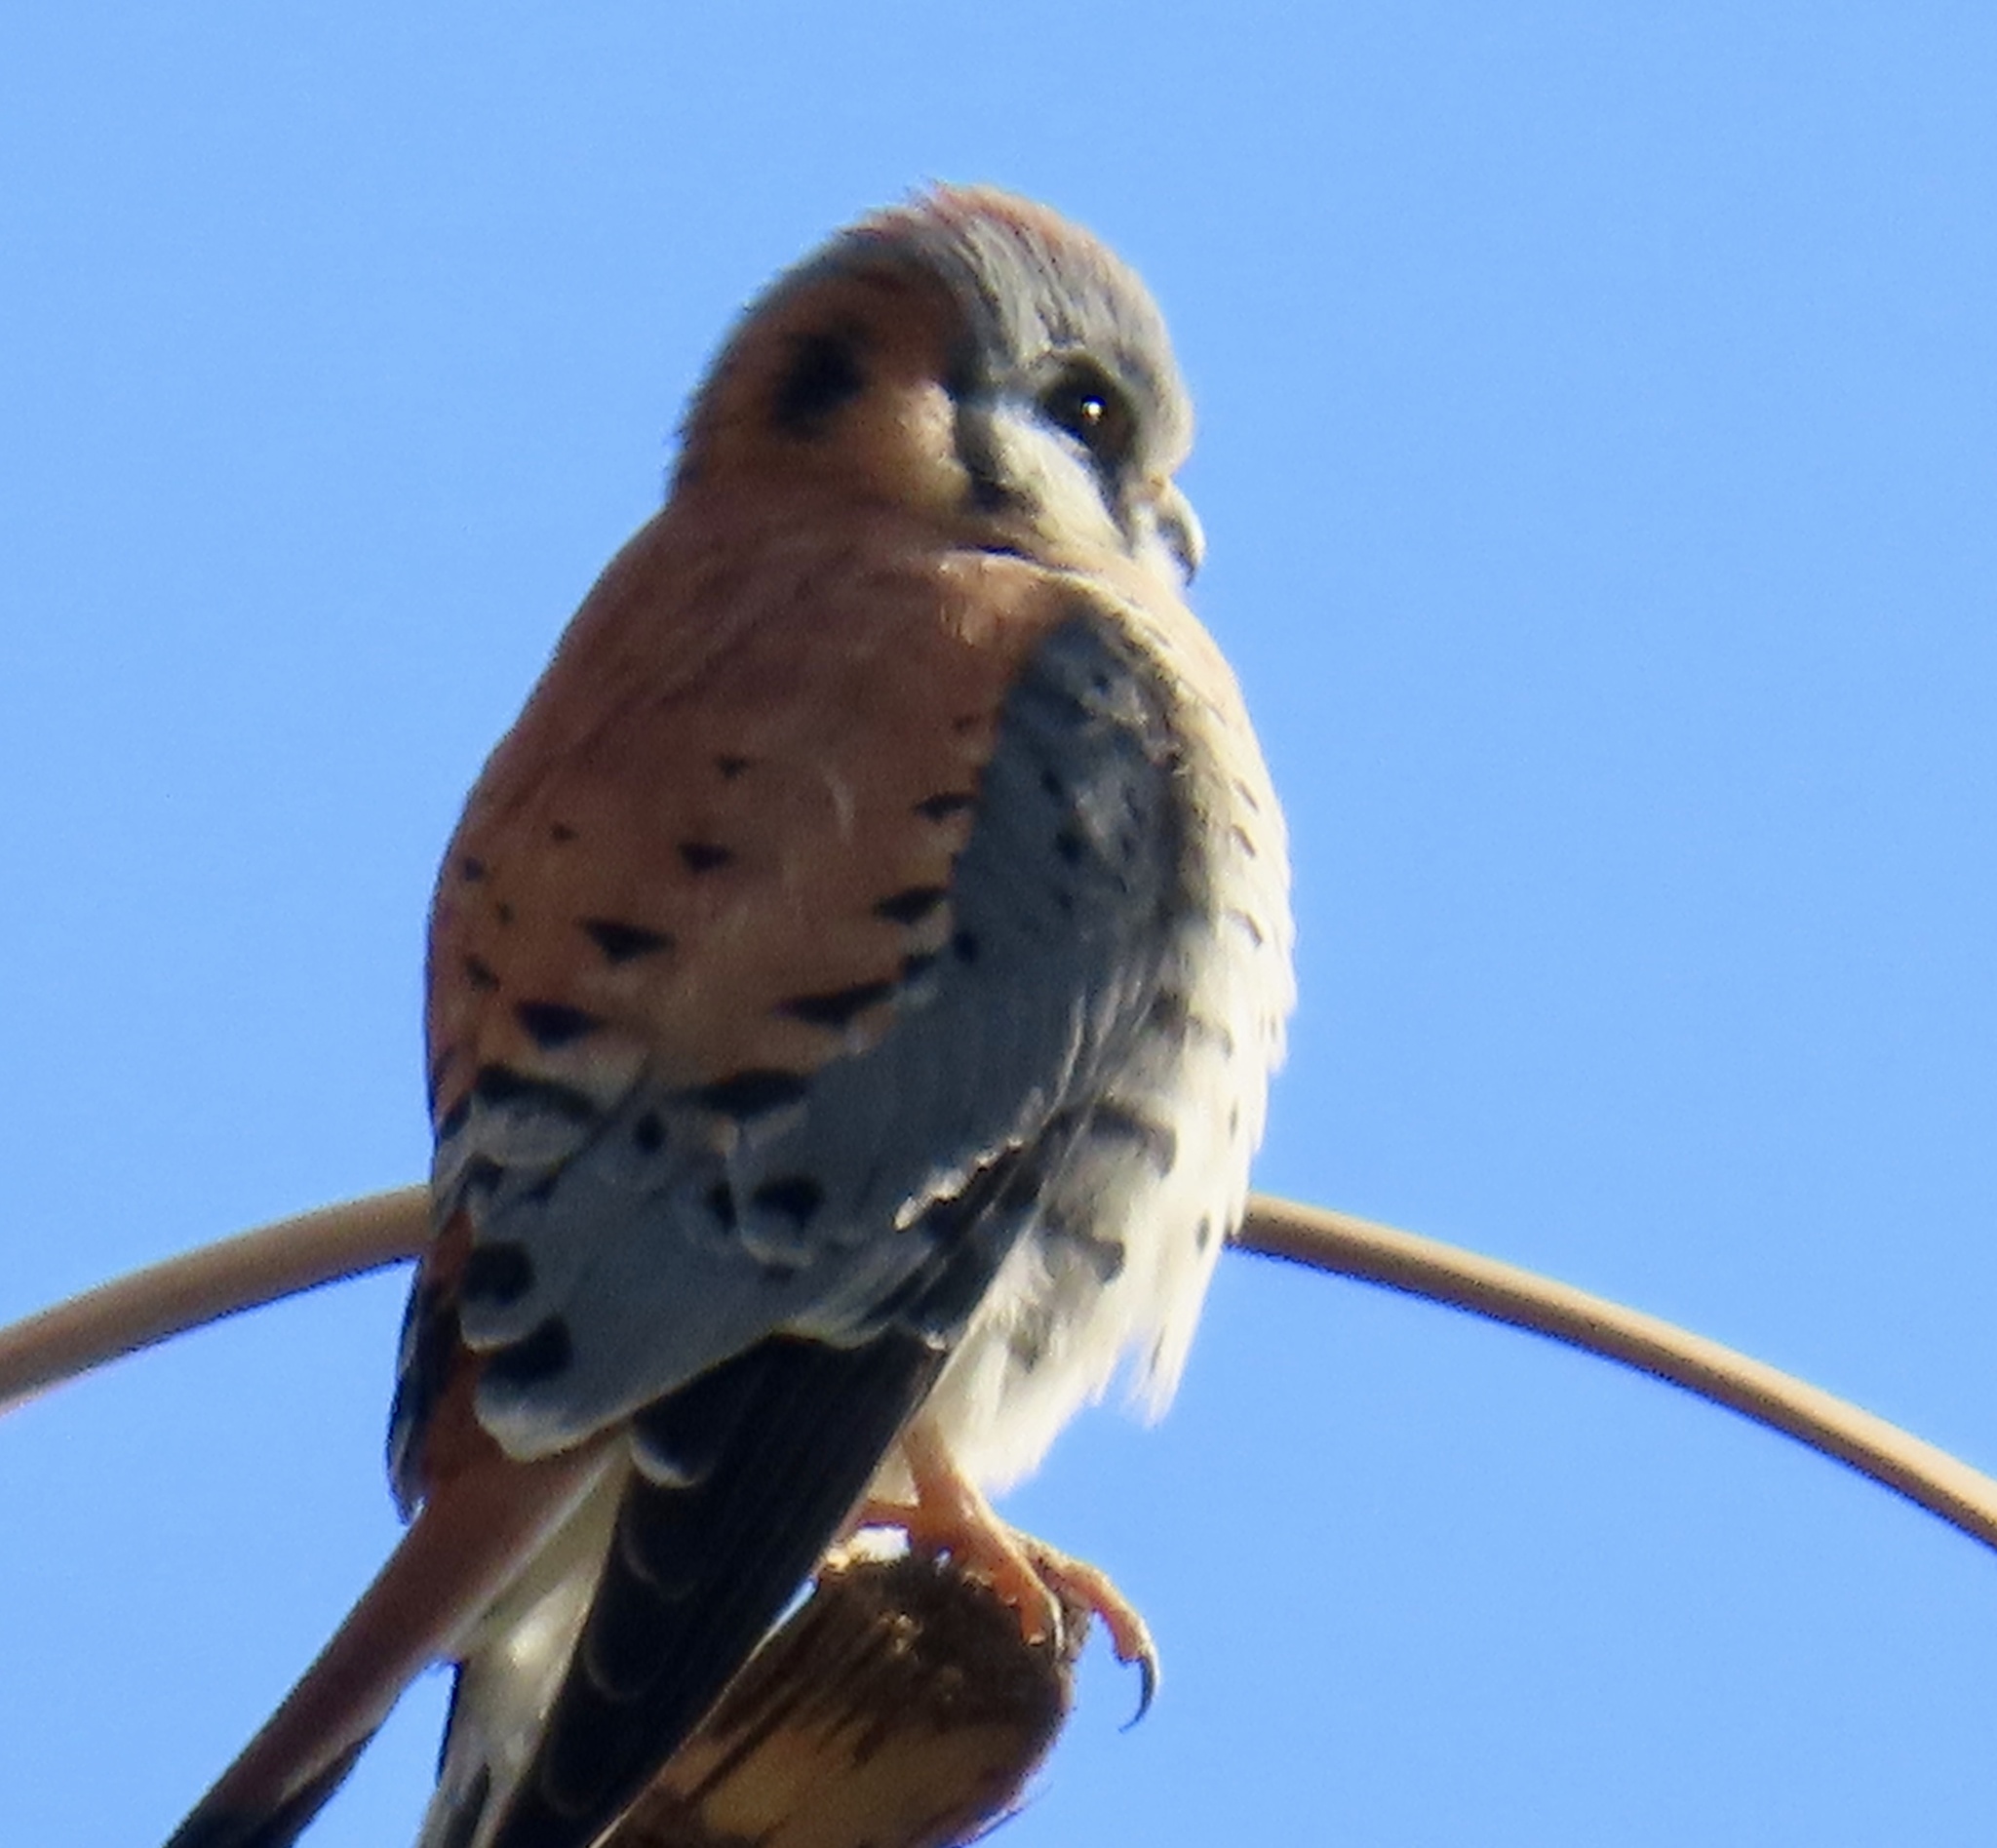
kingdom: Animalia
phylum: Chordata
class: Aves
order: Falconiformes
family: Falconidae
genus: Falco
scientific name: Falco sparverius
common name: American kestrel
